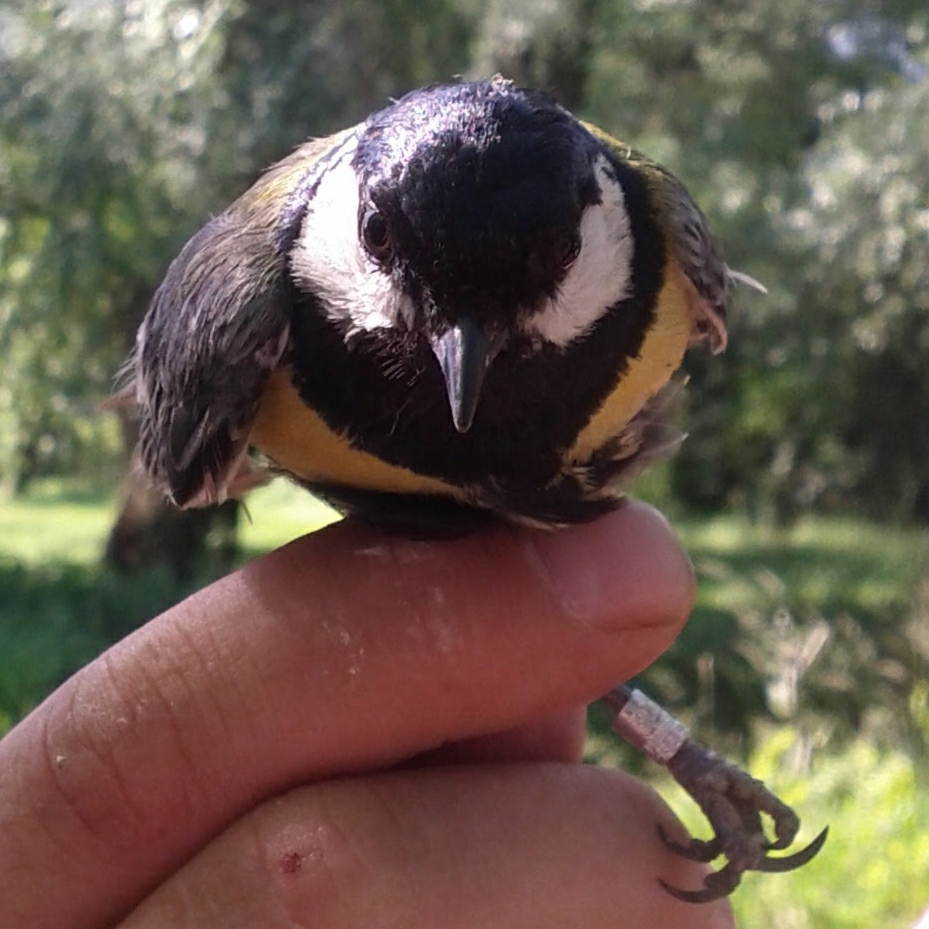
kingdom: Animalia
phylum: Chordata
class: Aves
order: Passeriformes
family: Paridae
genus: Parus
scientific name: Parus major
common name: Great tit
